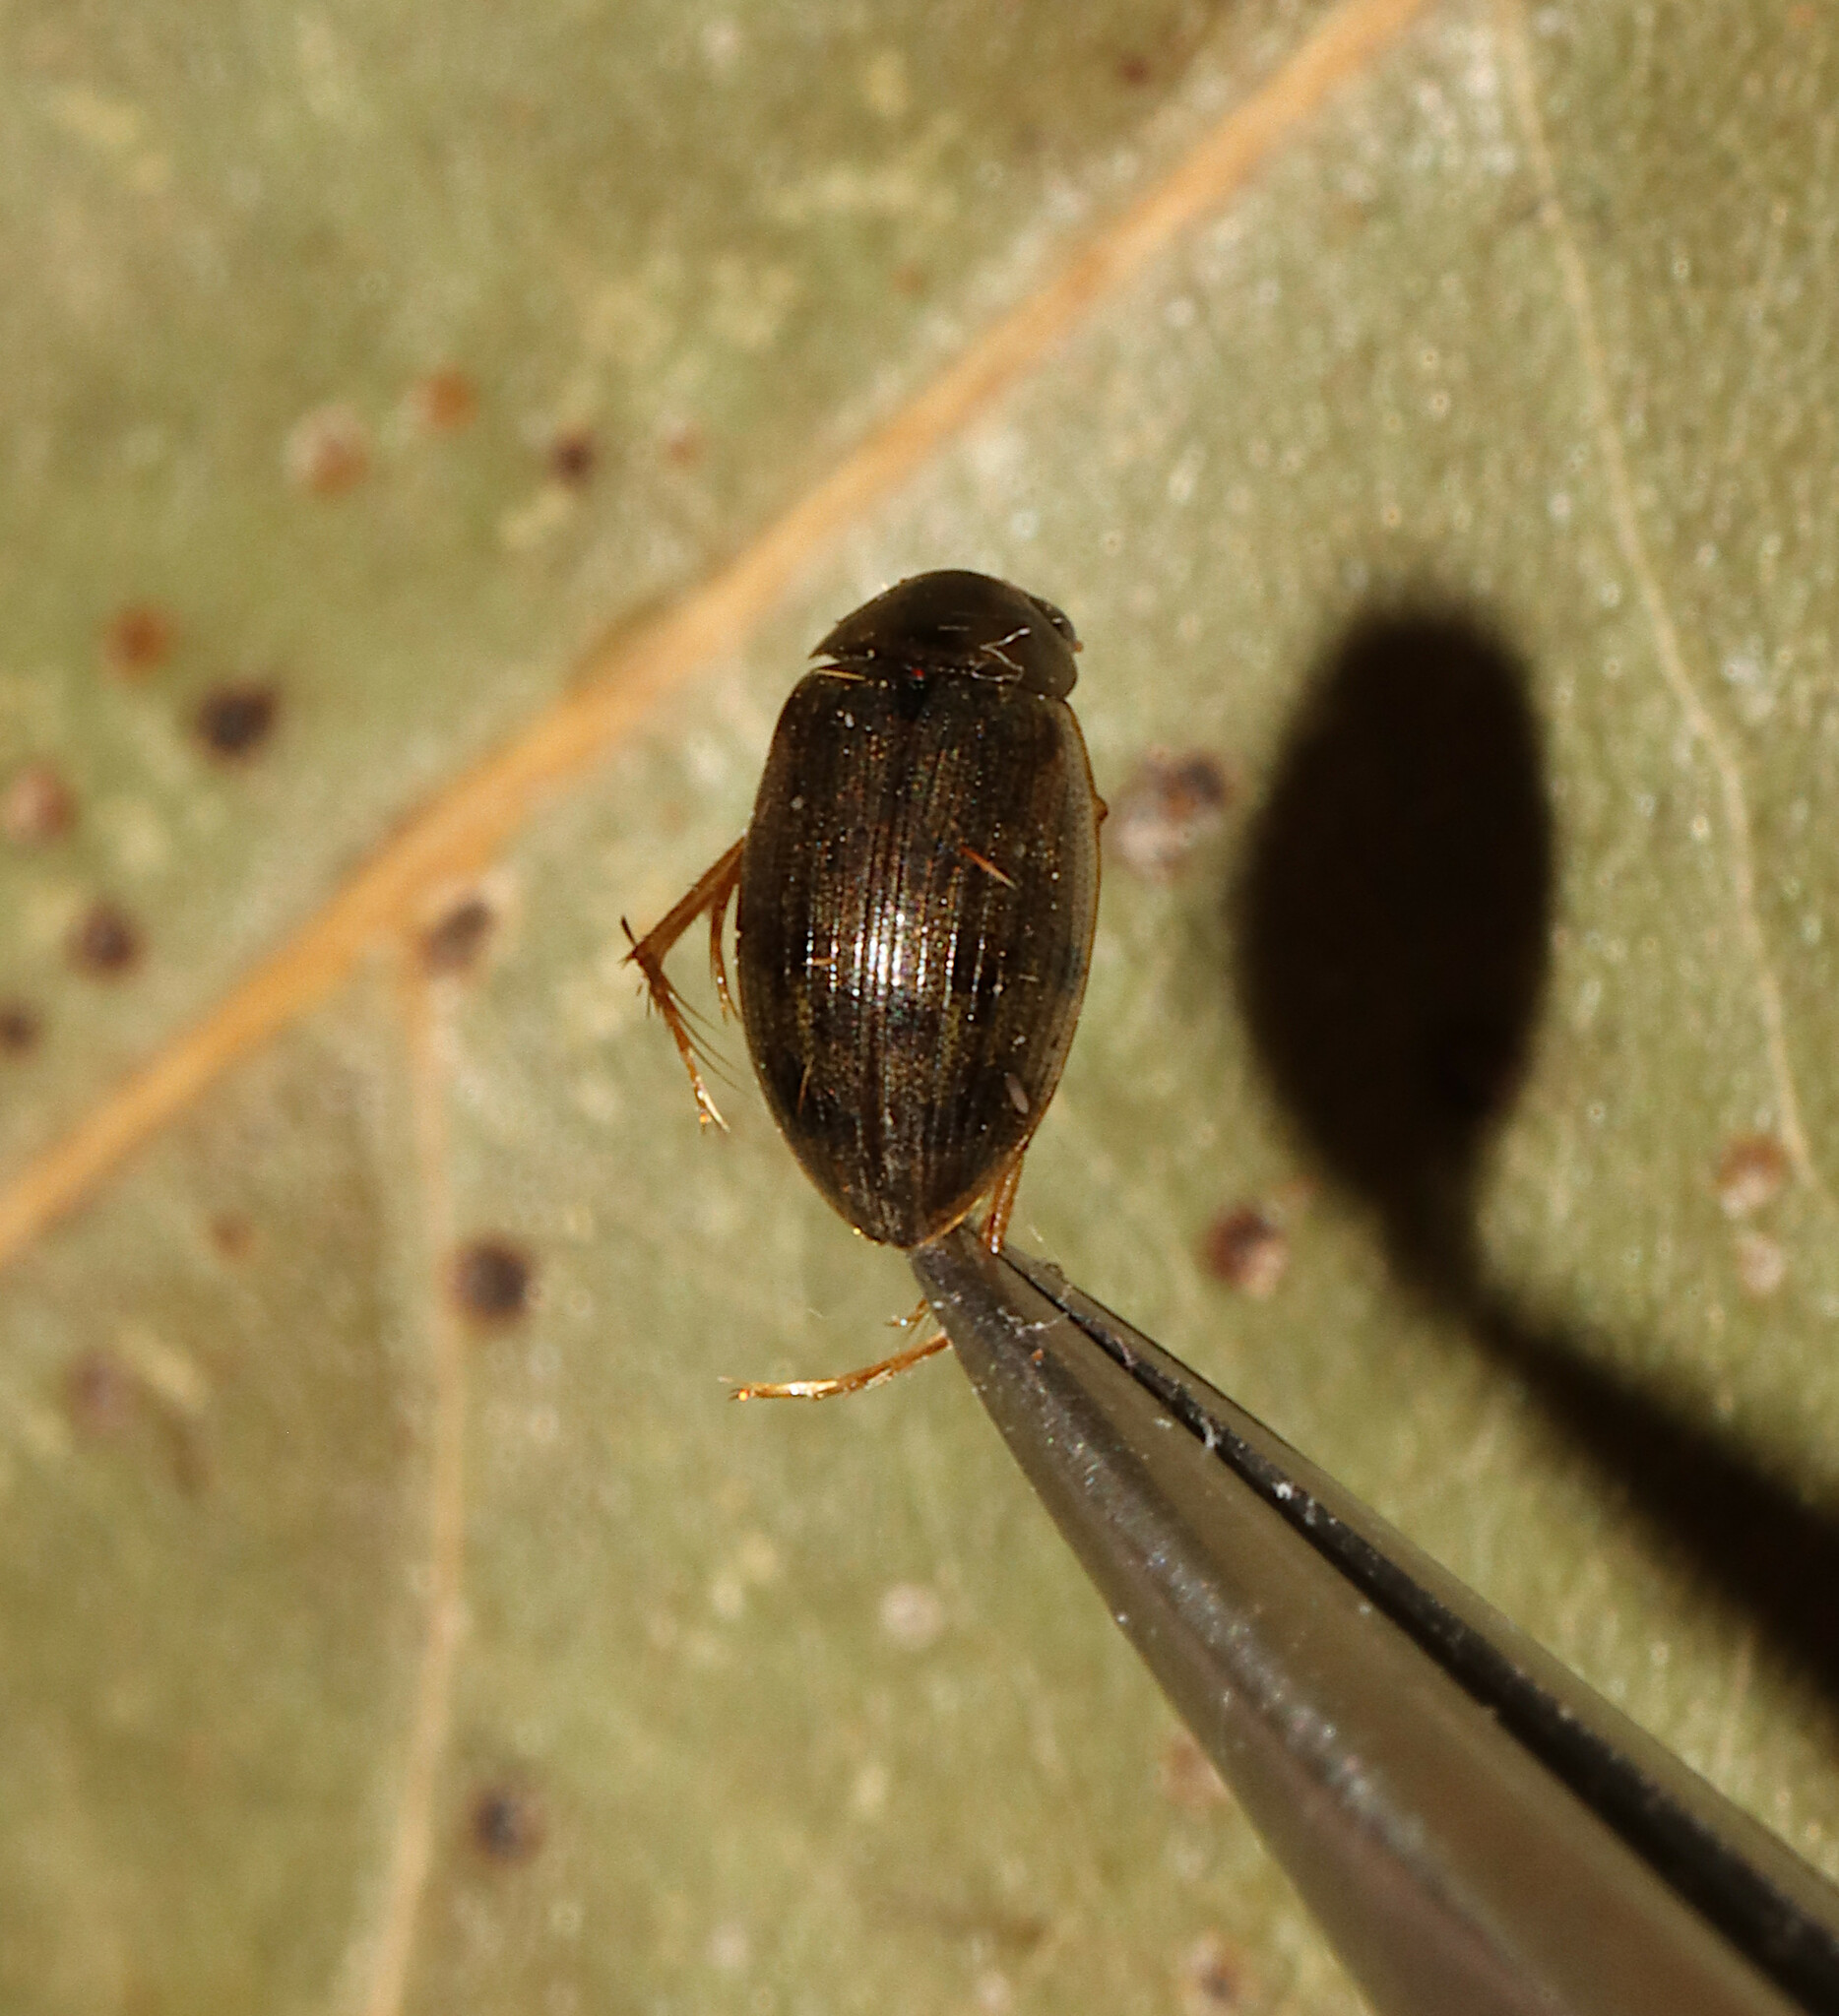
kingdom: Animalia
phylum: Arthropoda
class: Insecta
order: Coleoptera
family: Hydrophilidae
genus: Berosus
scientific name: Berosus
